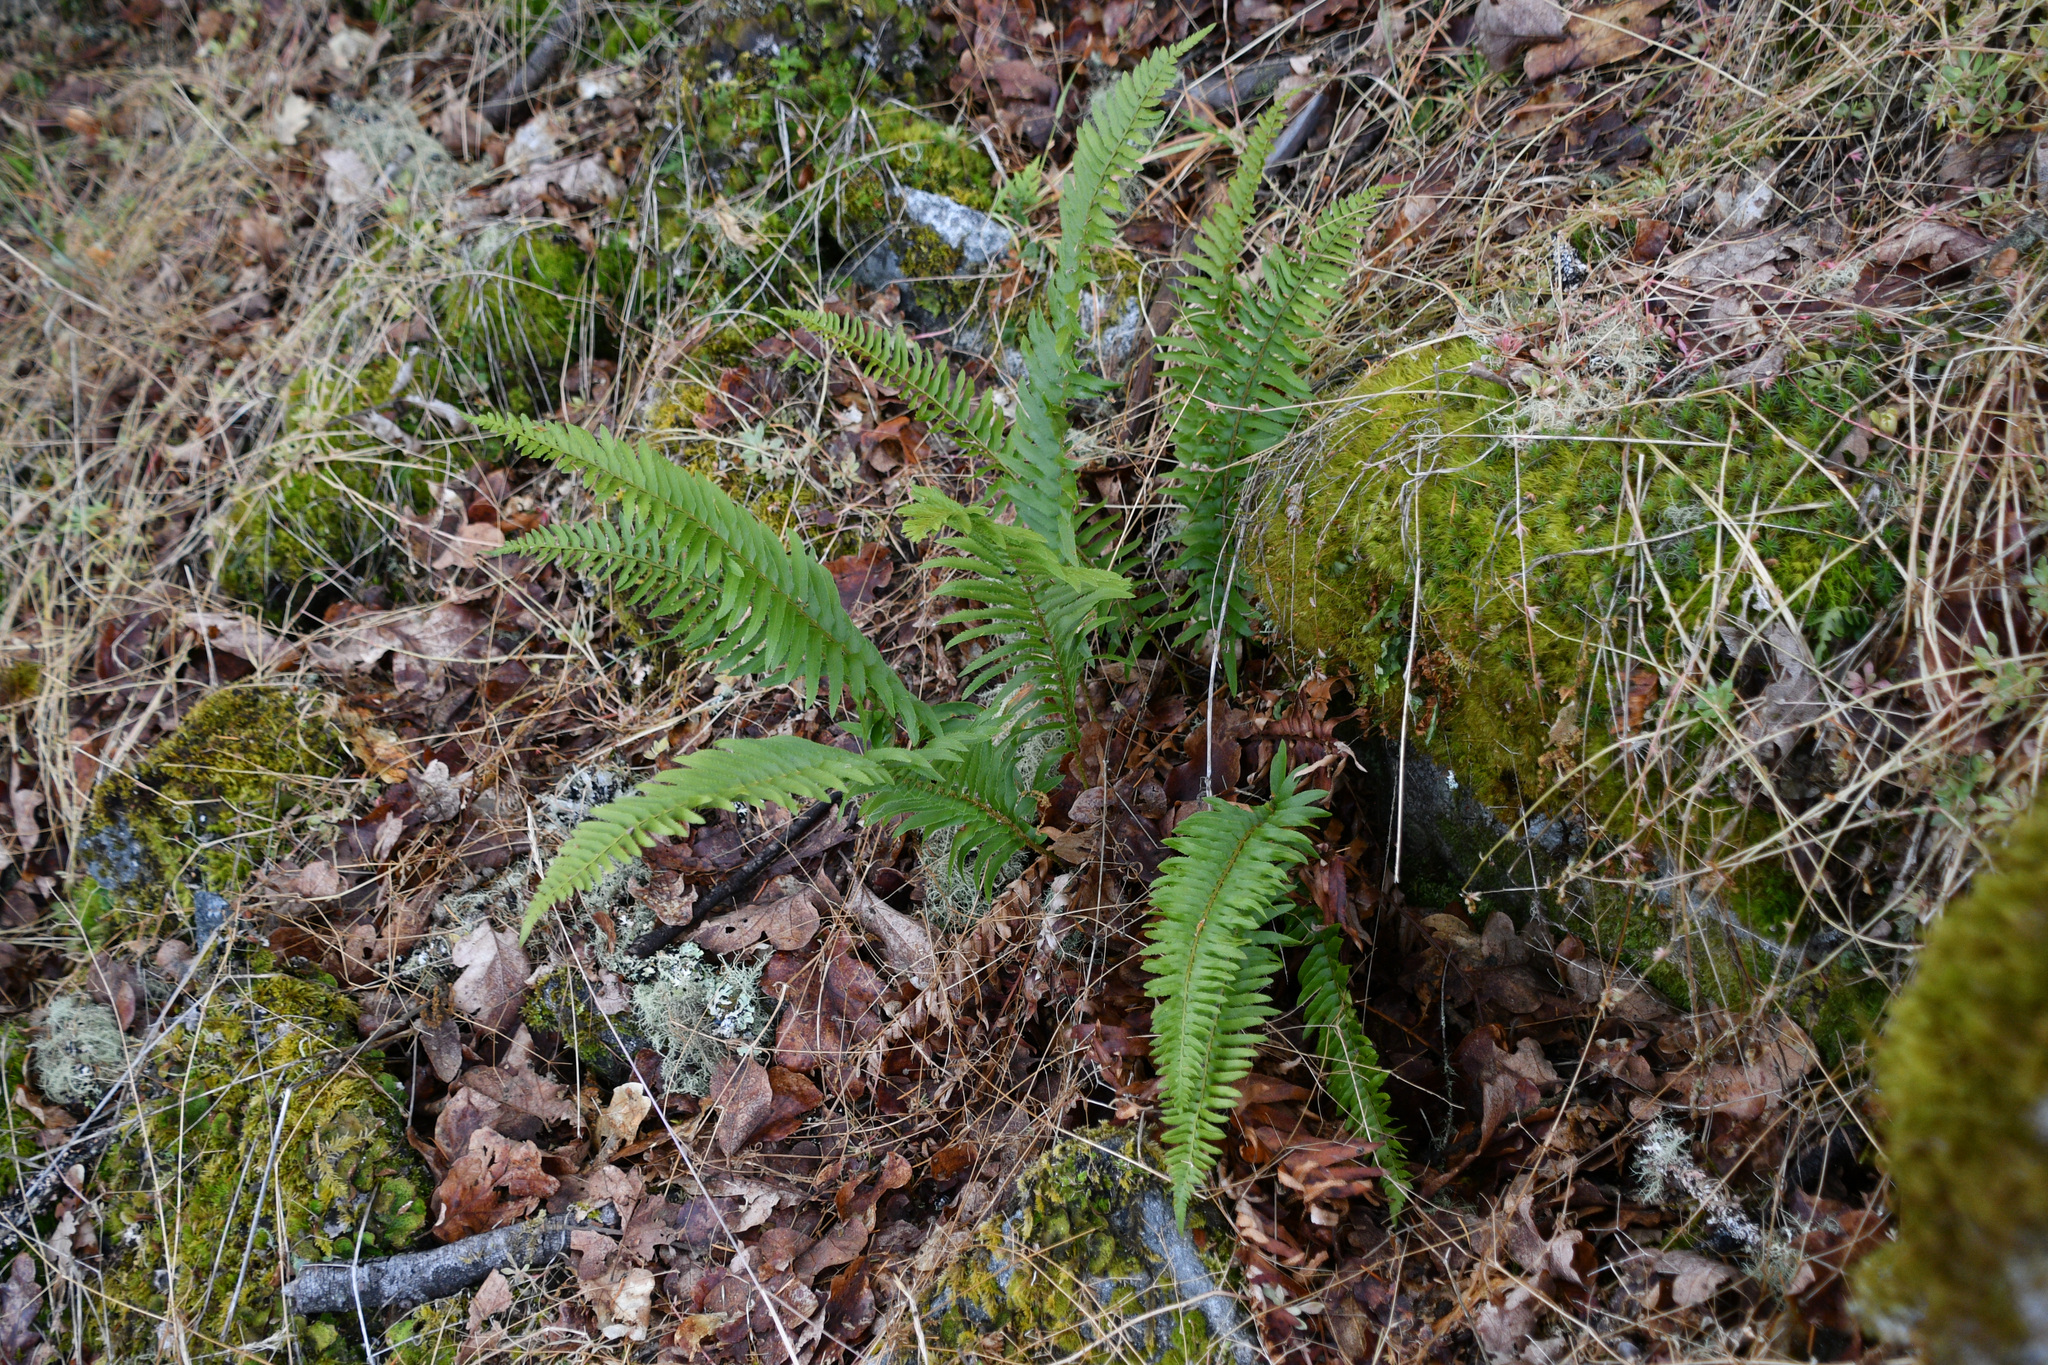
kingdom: Plantae
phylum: Tracheophyta
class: Polypodiopsida
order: Polypodiales
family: Dryopteridaceae
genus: Polystichum
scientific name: Polystichum munitum
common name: Western sword-fern
